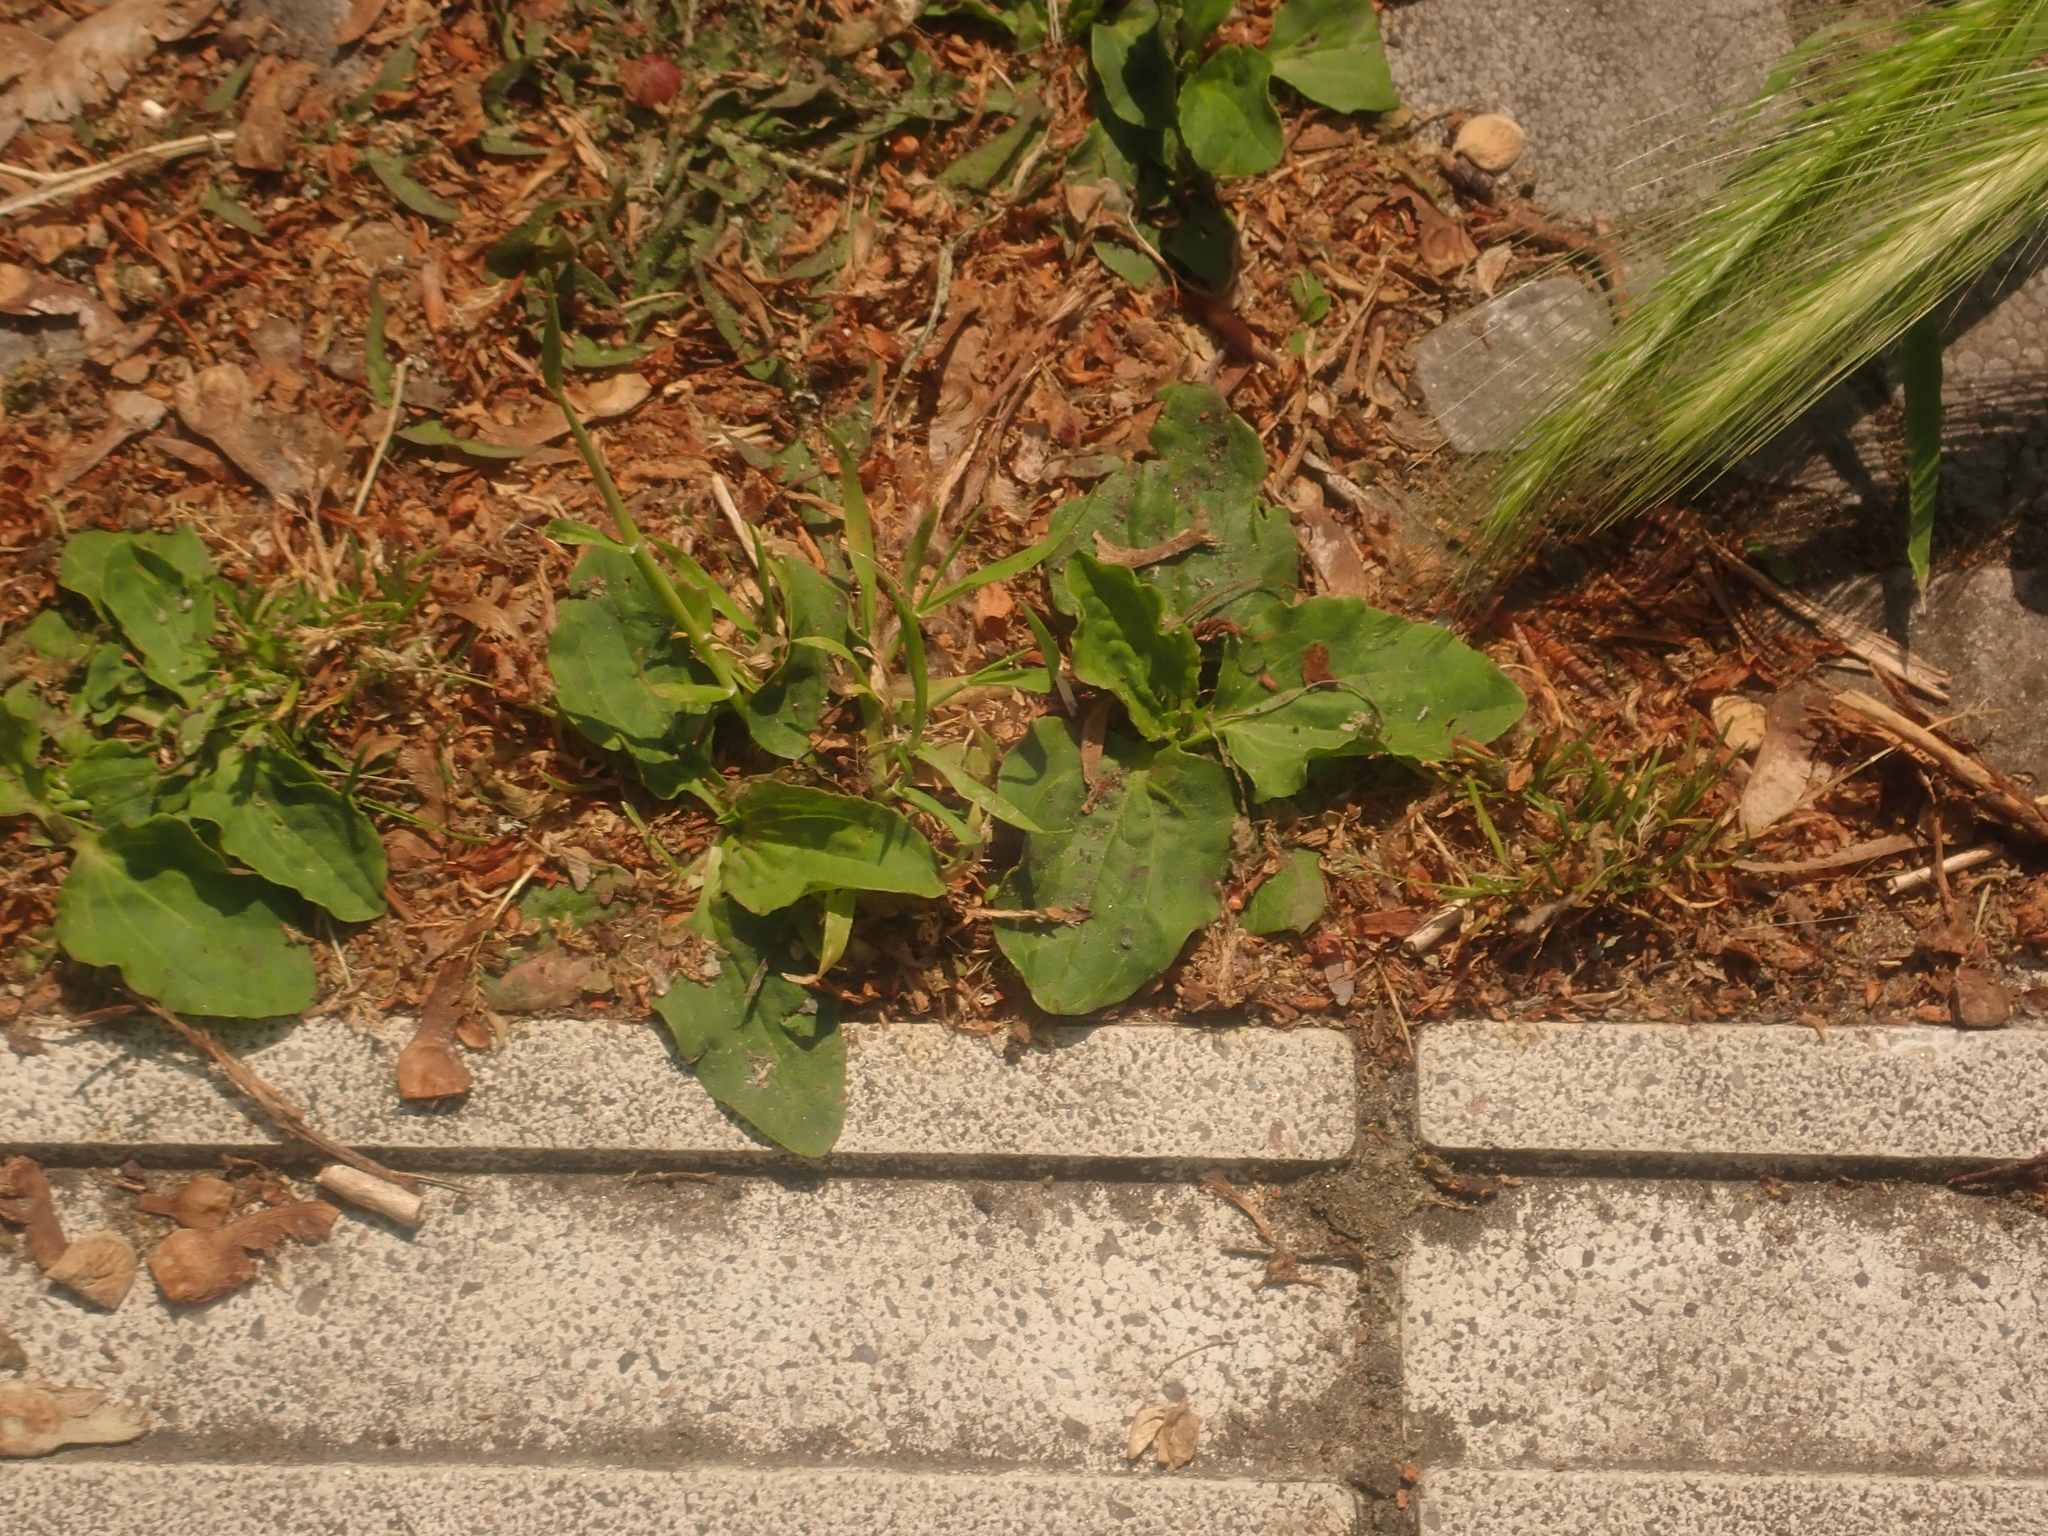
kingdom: Plantae
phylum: Tracheophyta
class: Magnoliopsida
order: Lamiales
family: Plantaginaceae
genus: Plantago
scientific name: Plantago major
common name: Common plantain
